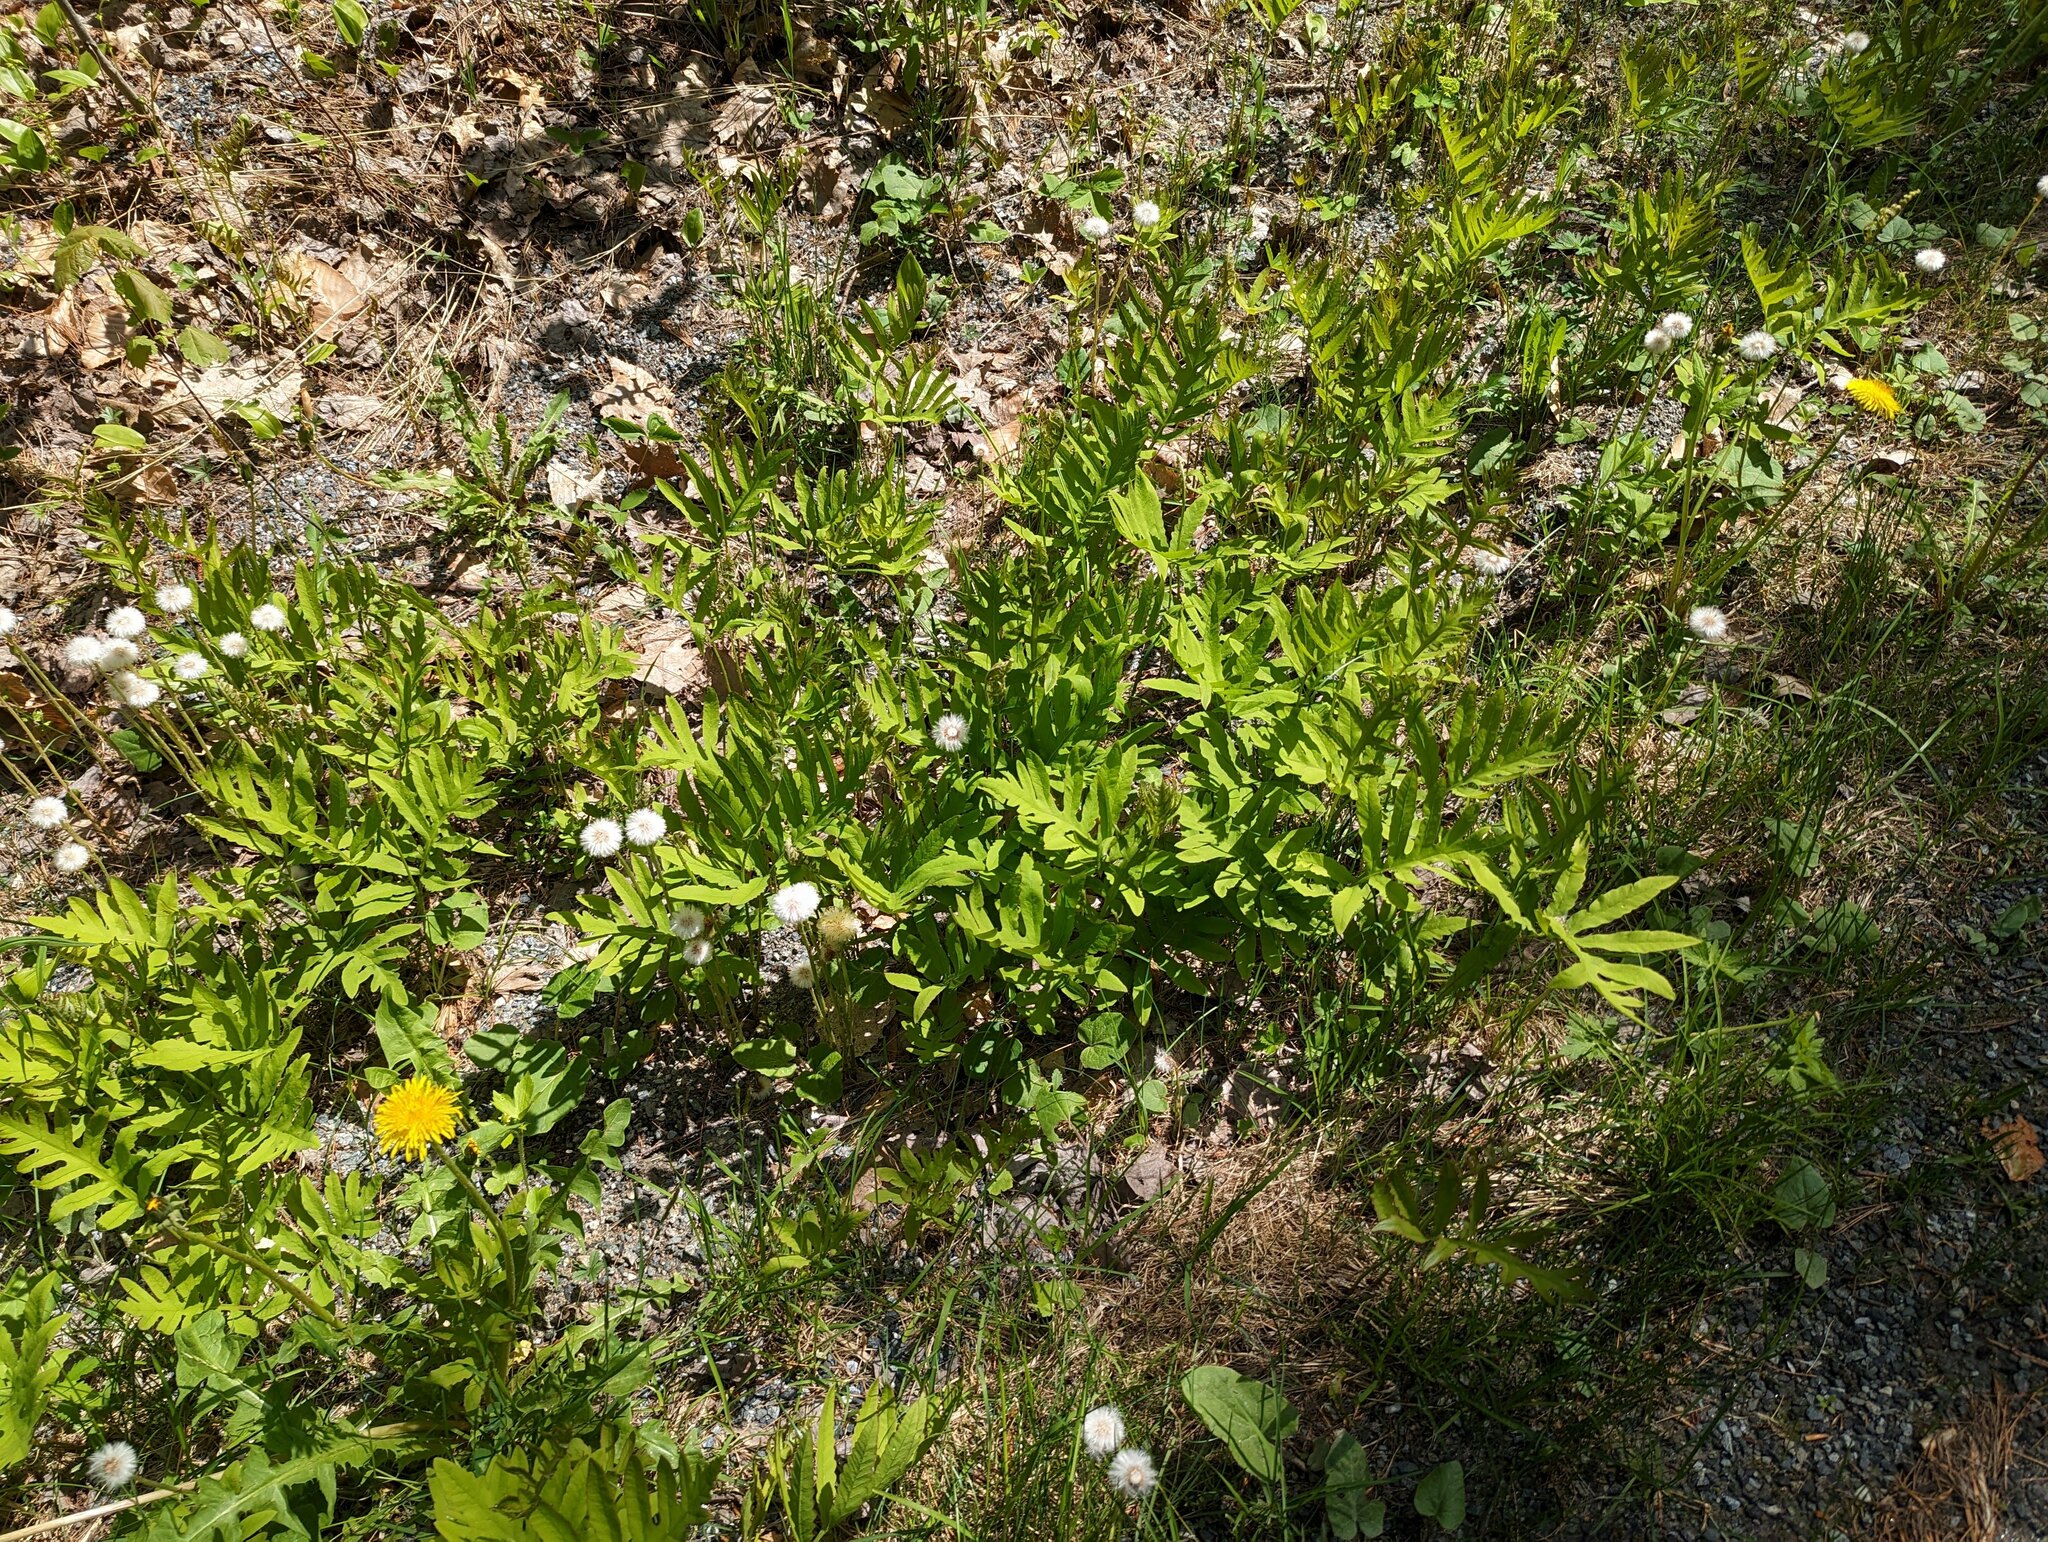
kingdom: Plantae
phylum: Tracheophyta
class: Polypodiopsida
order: Polypodiales
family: Onocleaceae
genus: Onoclea
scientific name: Onoclea sensibilis
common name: Sensitive fern
